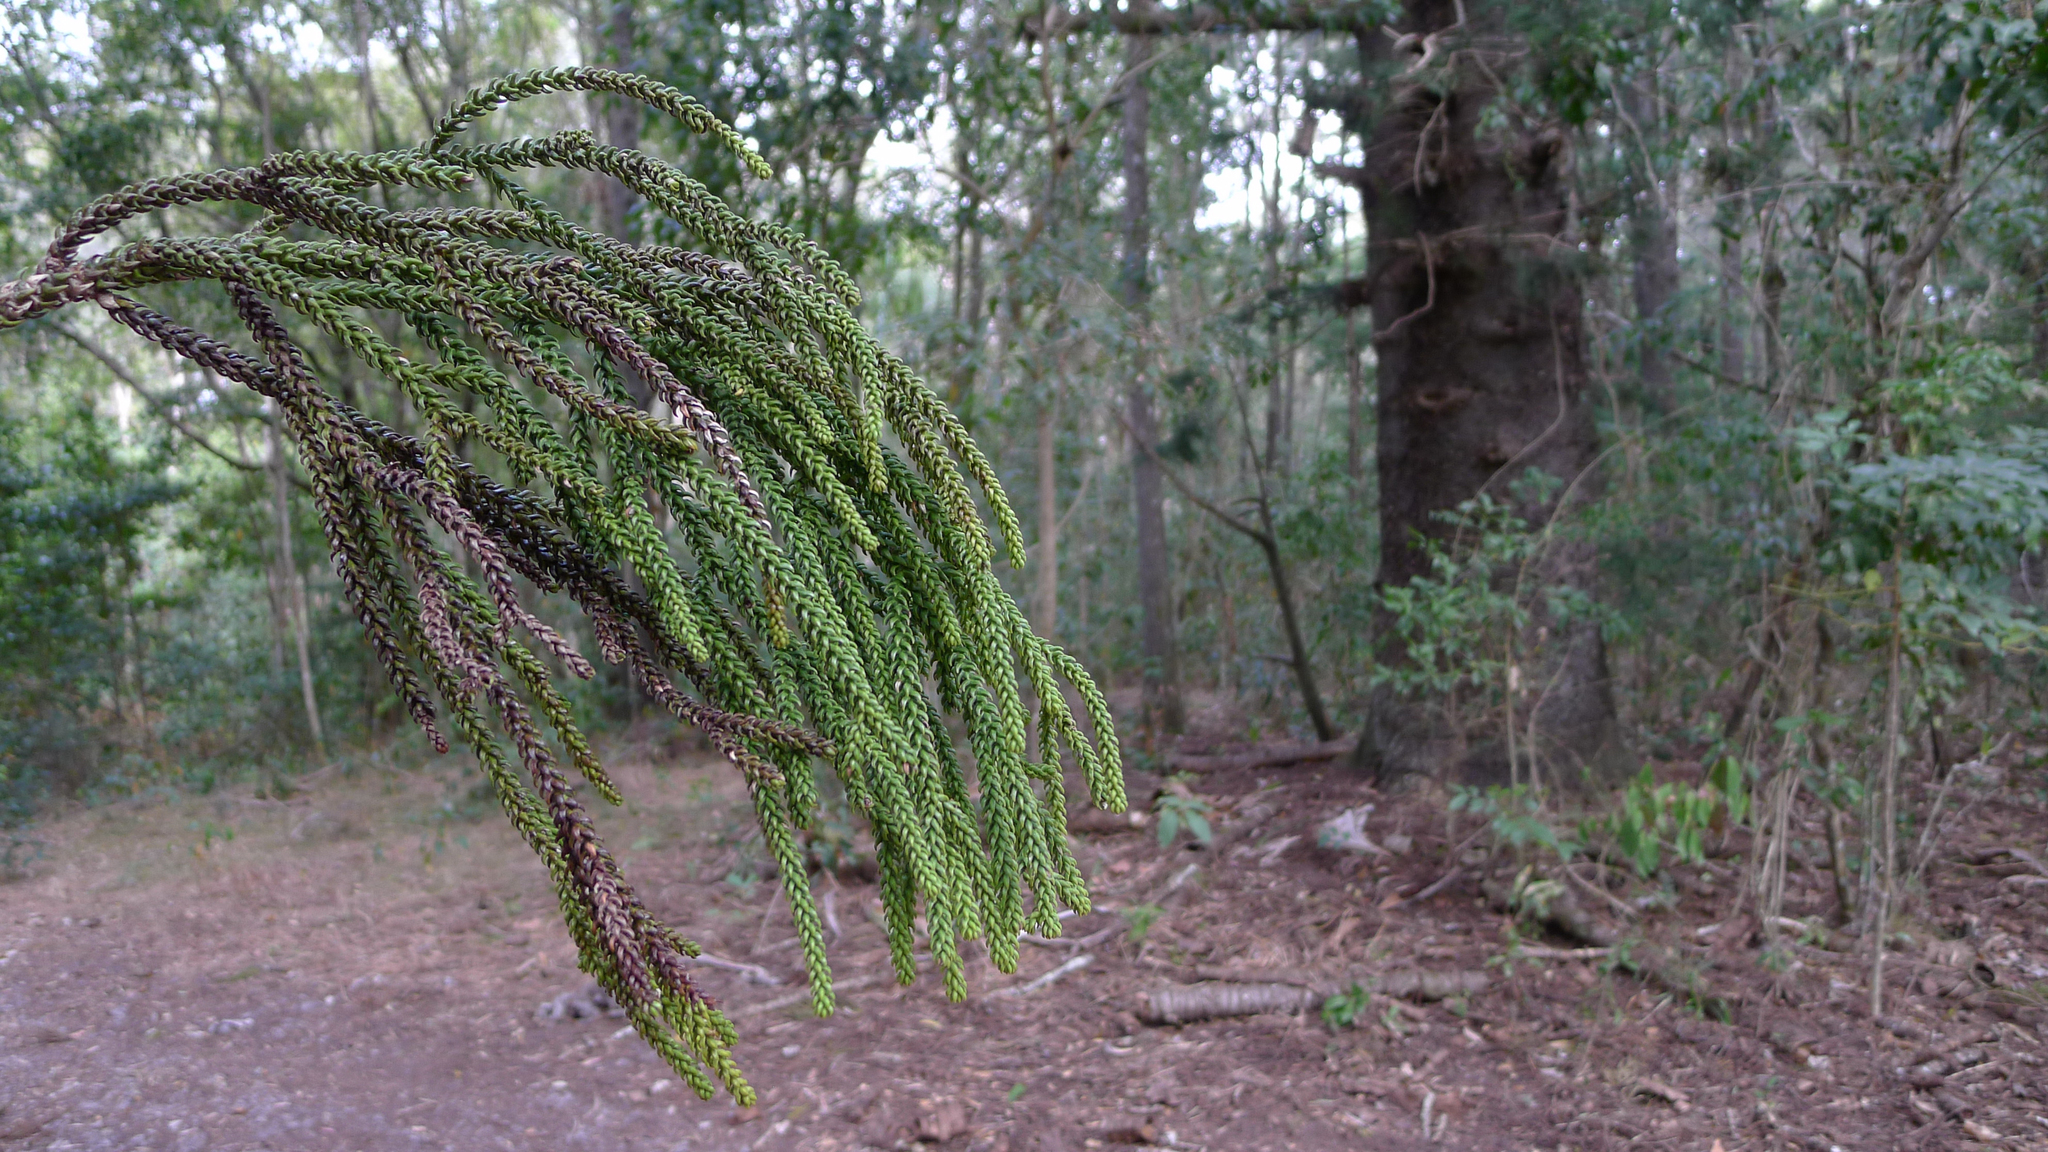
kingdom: Plantae
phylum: Tracheophyta
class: Pinopsida
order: Pinales
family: Araucariaceae
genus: Araucaria
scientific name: Araucaria cunninghamii
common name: Colonial pine
